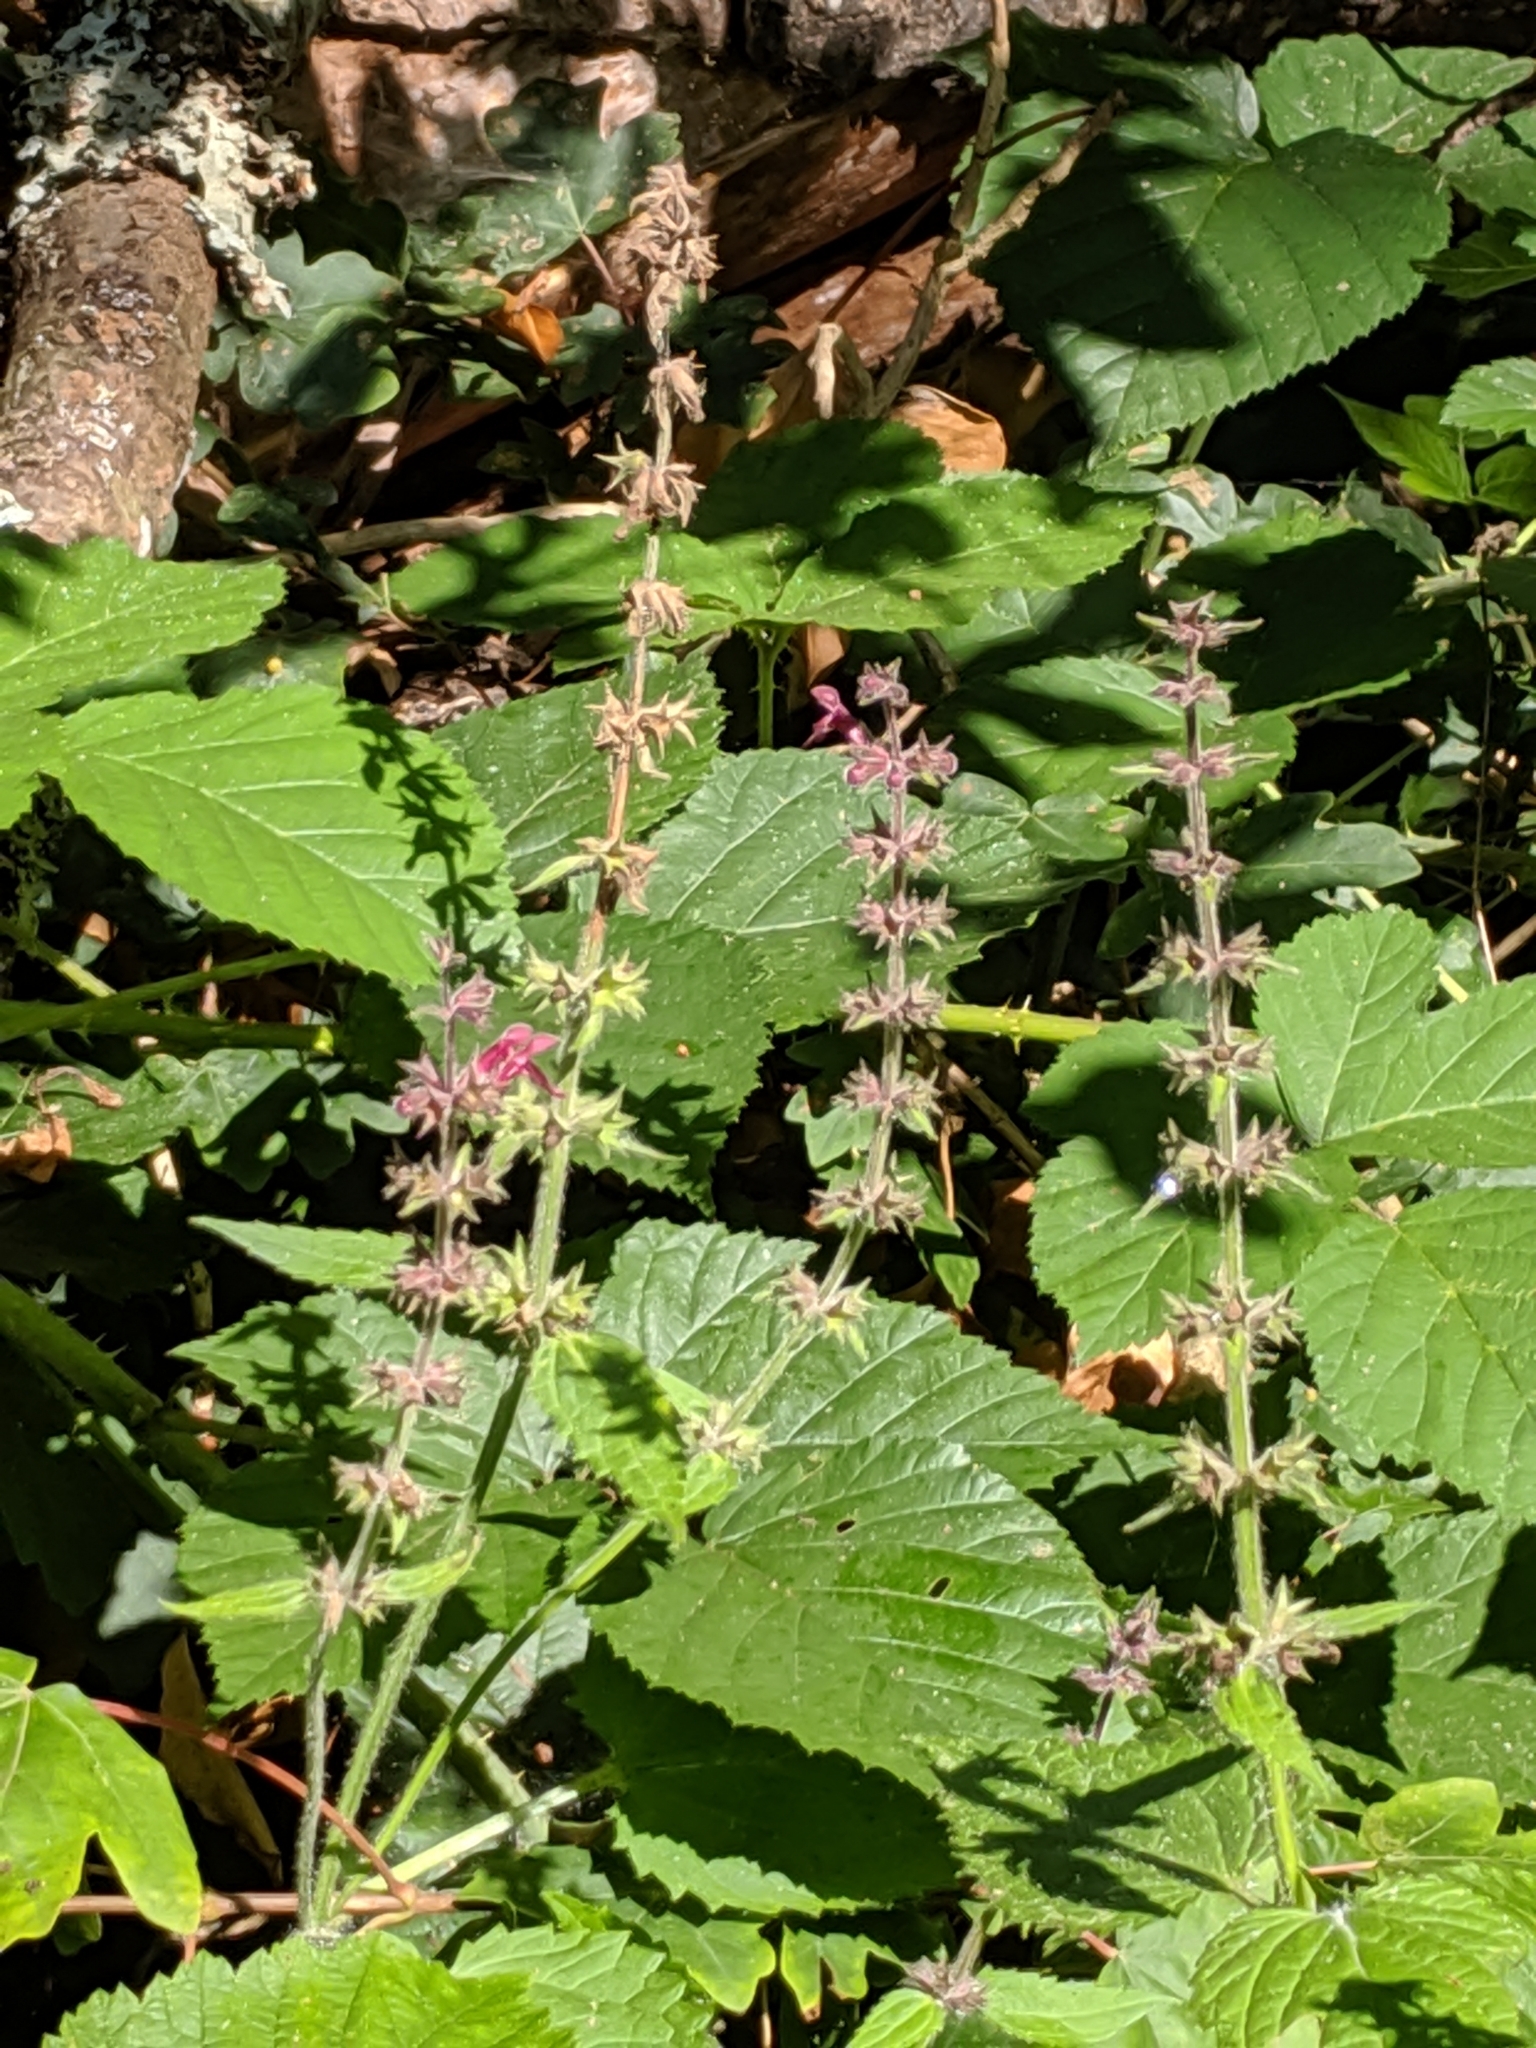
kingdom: Plantae
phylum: Tracheophyta
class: Magnoliopsida
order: Lamiales
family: Lamiaceae
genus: Stachys
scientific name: Stachys sylvatica
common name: Hedge woundwort
